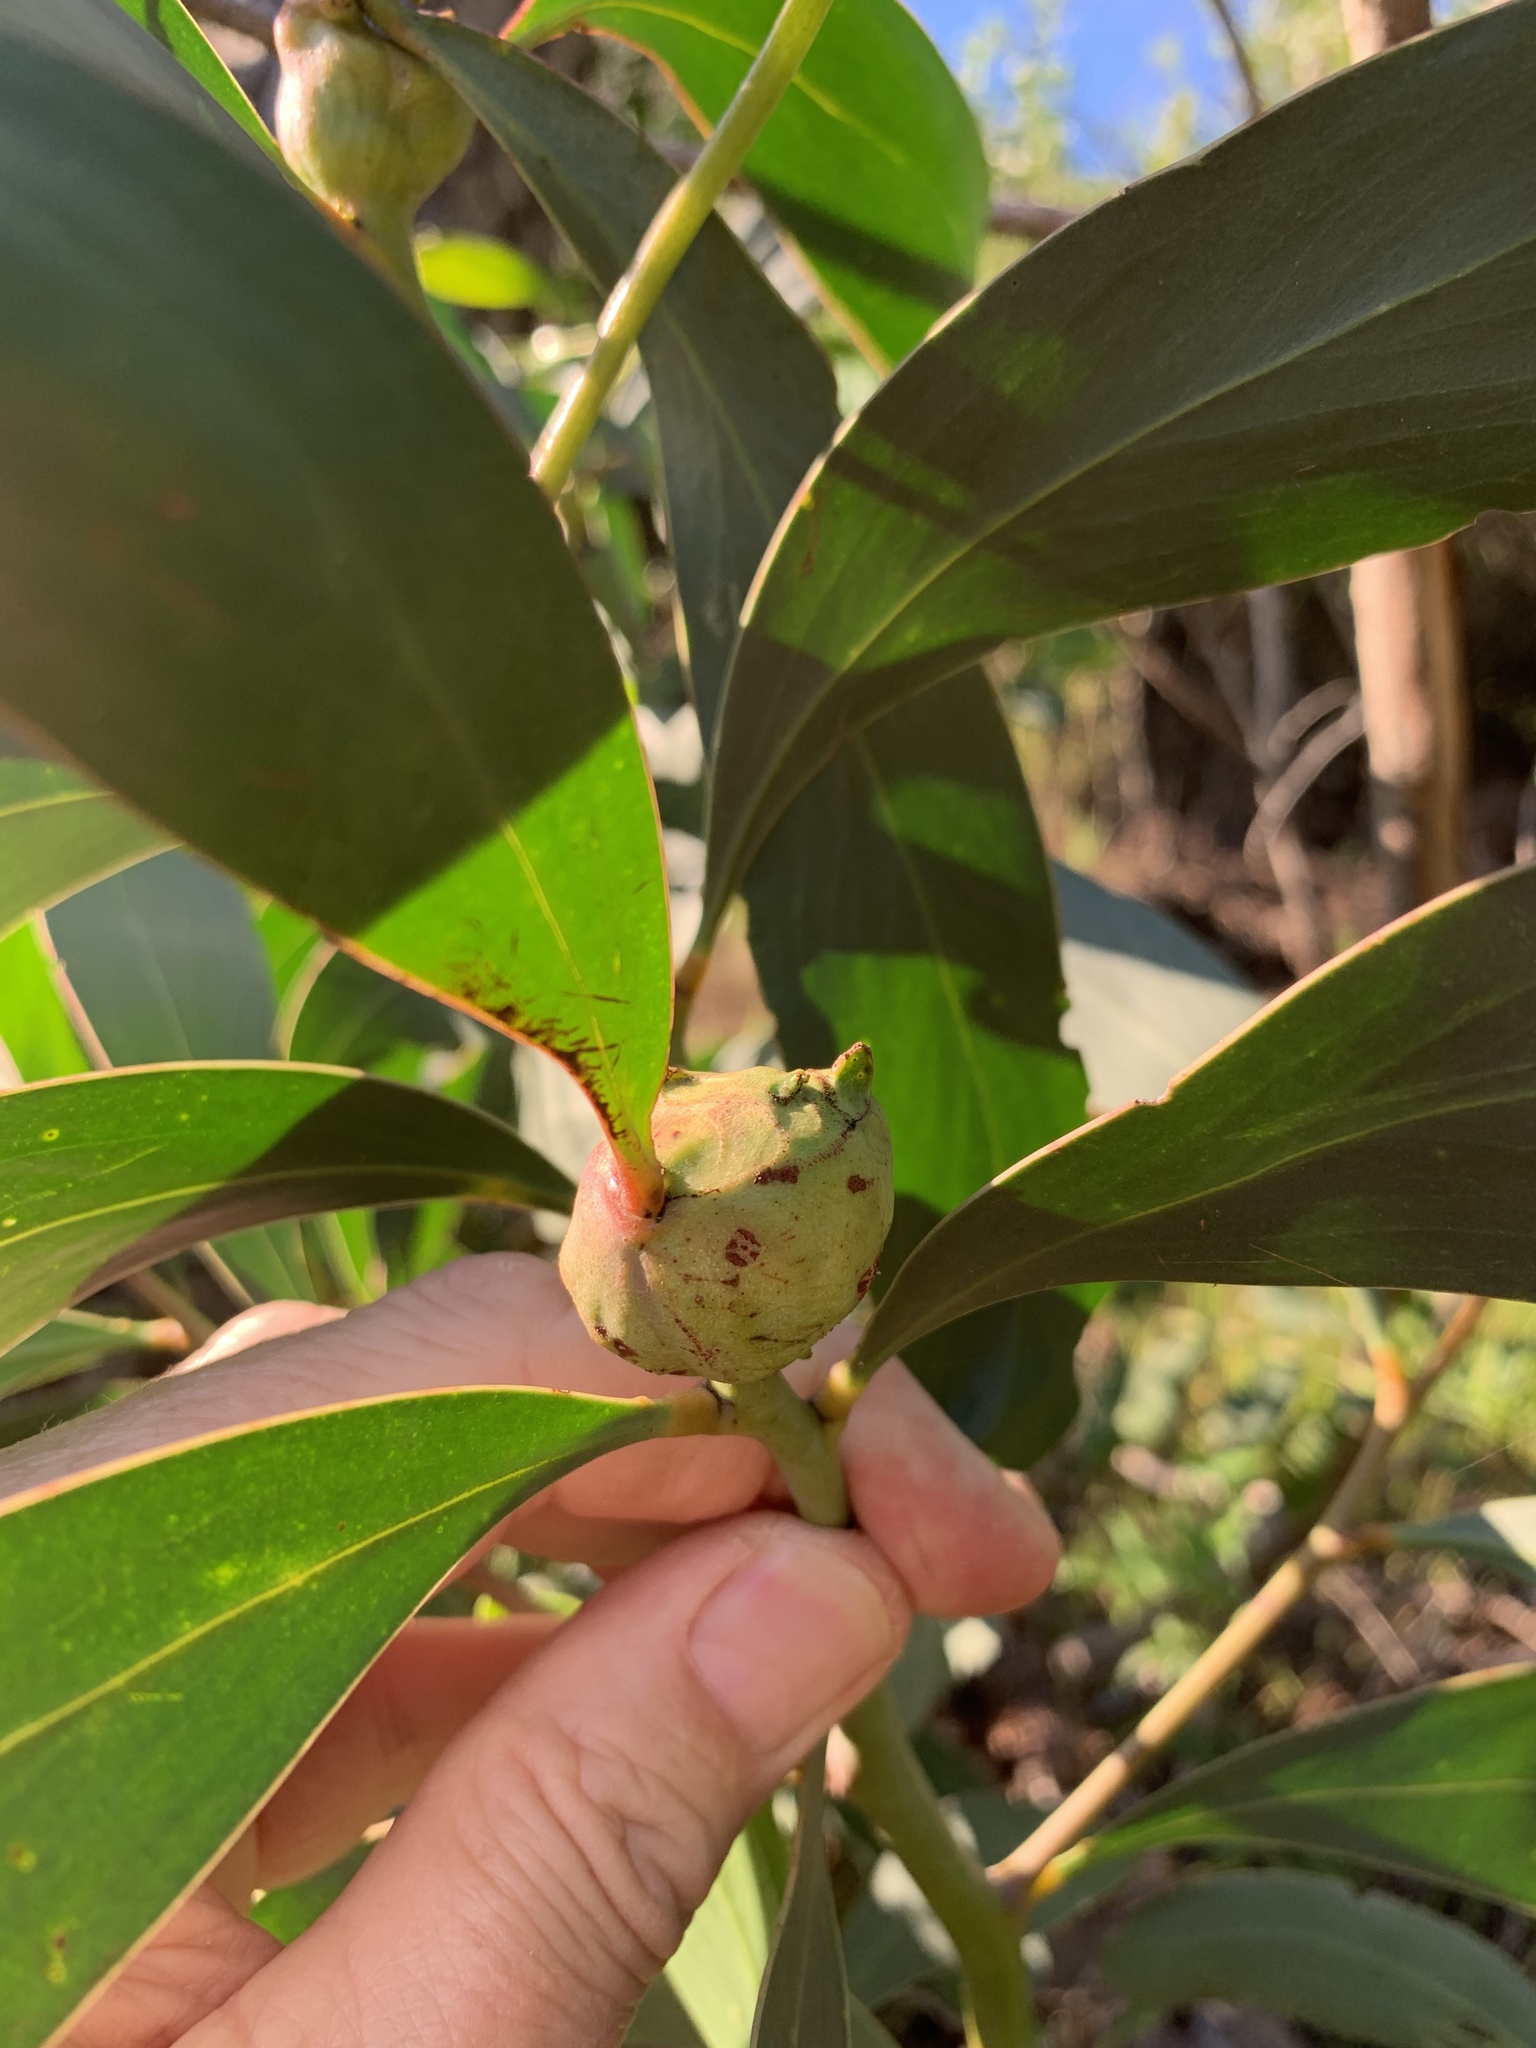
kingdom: Animalia
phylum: Arthropoda
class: Insecta
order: Hymenoptera
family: Pteromalidae
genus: Trichilogaster
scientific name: Trichilogaster signiventris
